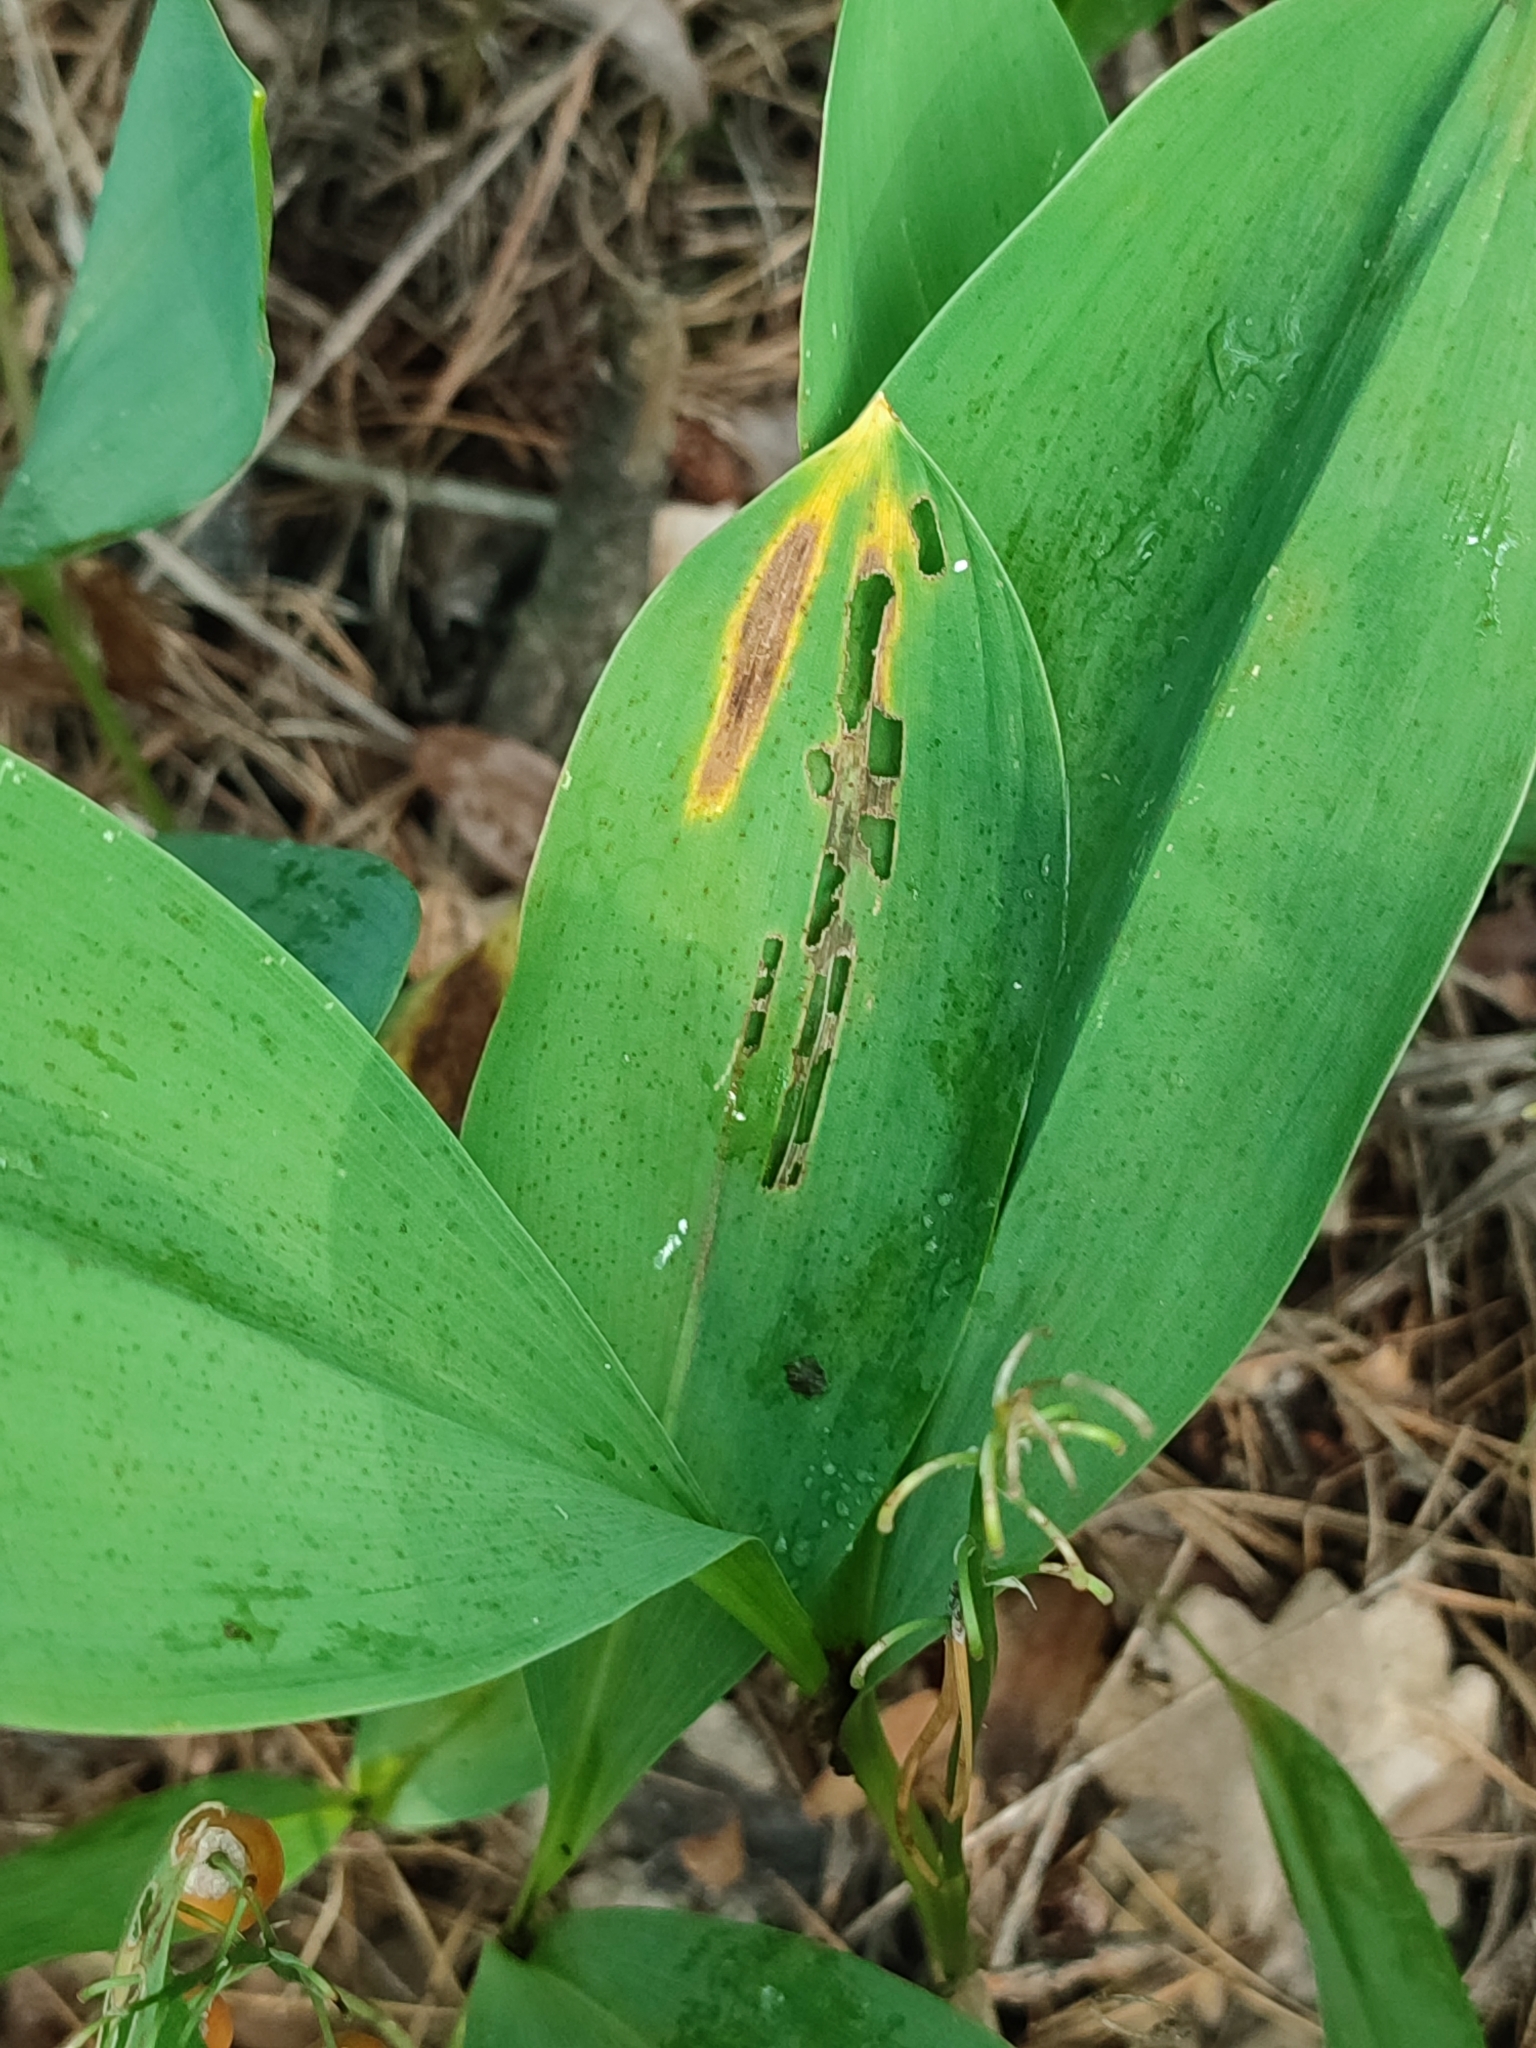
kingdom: Plantae
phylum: Tracheophyta
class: Liliopsida
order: Asparagales
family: Asparagaceae
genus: Convallaria
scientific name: Convallaria majalis
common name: Lily-of-the-valley
